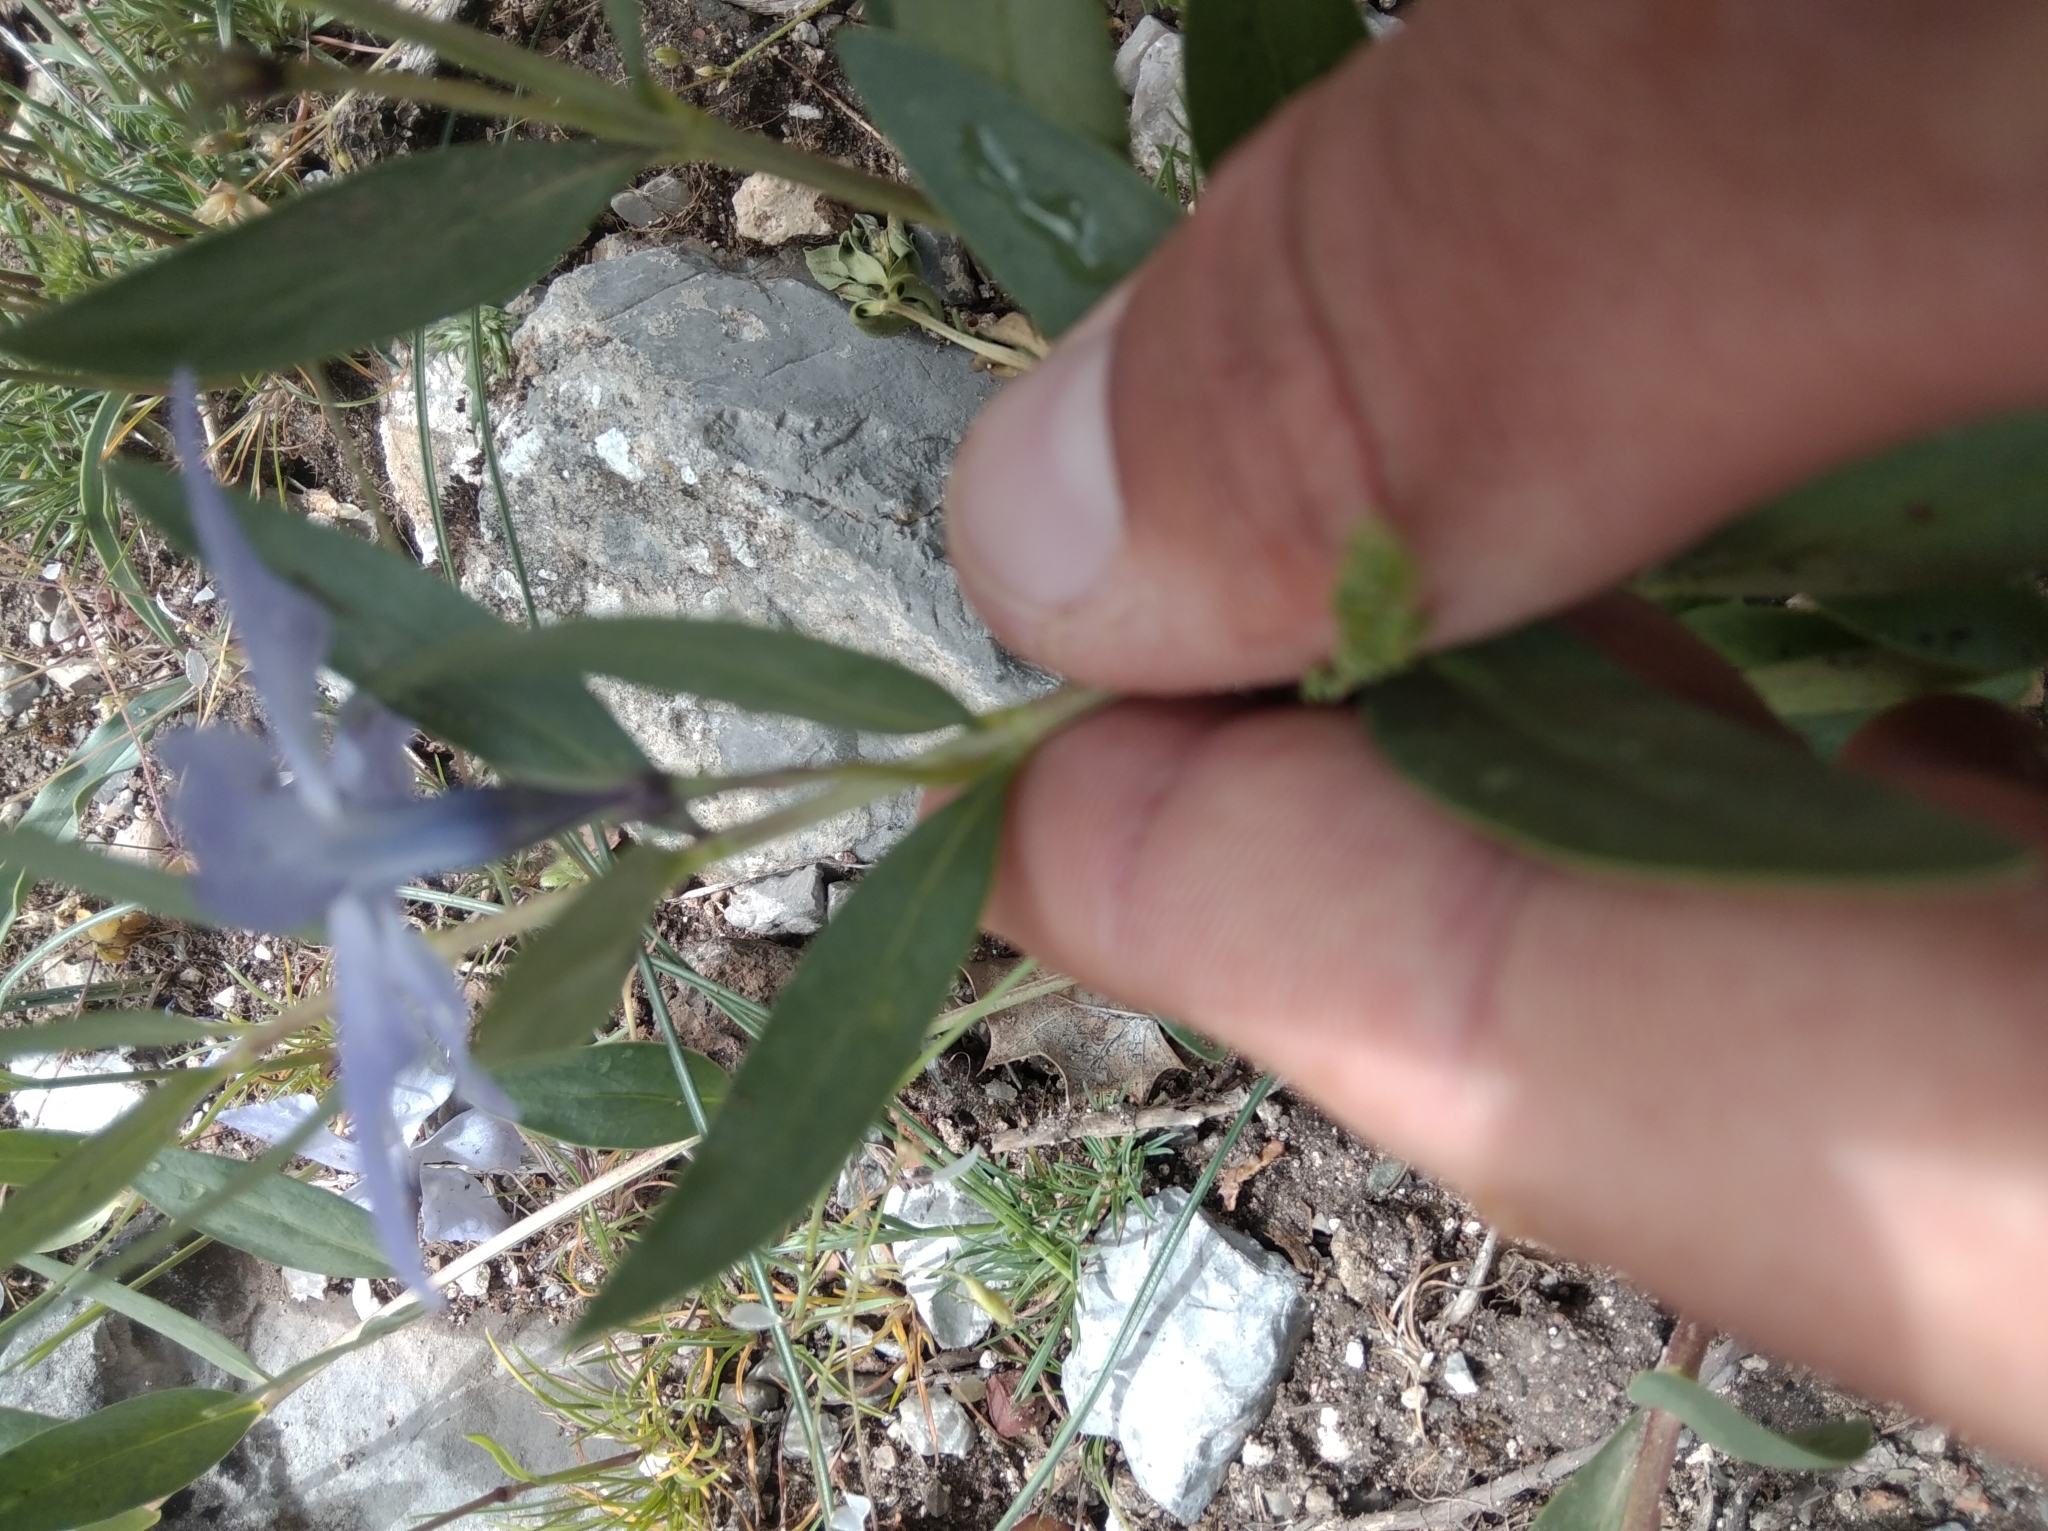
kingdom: Plantae
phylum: Tracheophyta
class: Magnoliopsida
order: Gentianales
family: Apocynaceae
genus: Vinca
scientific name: Vinca herbacea
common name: Herbaceous periwinkle
